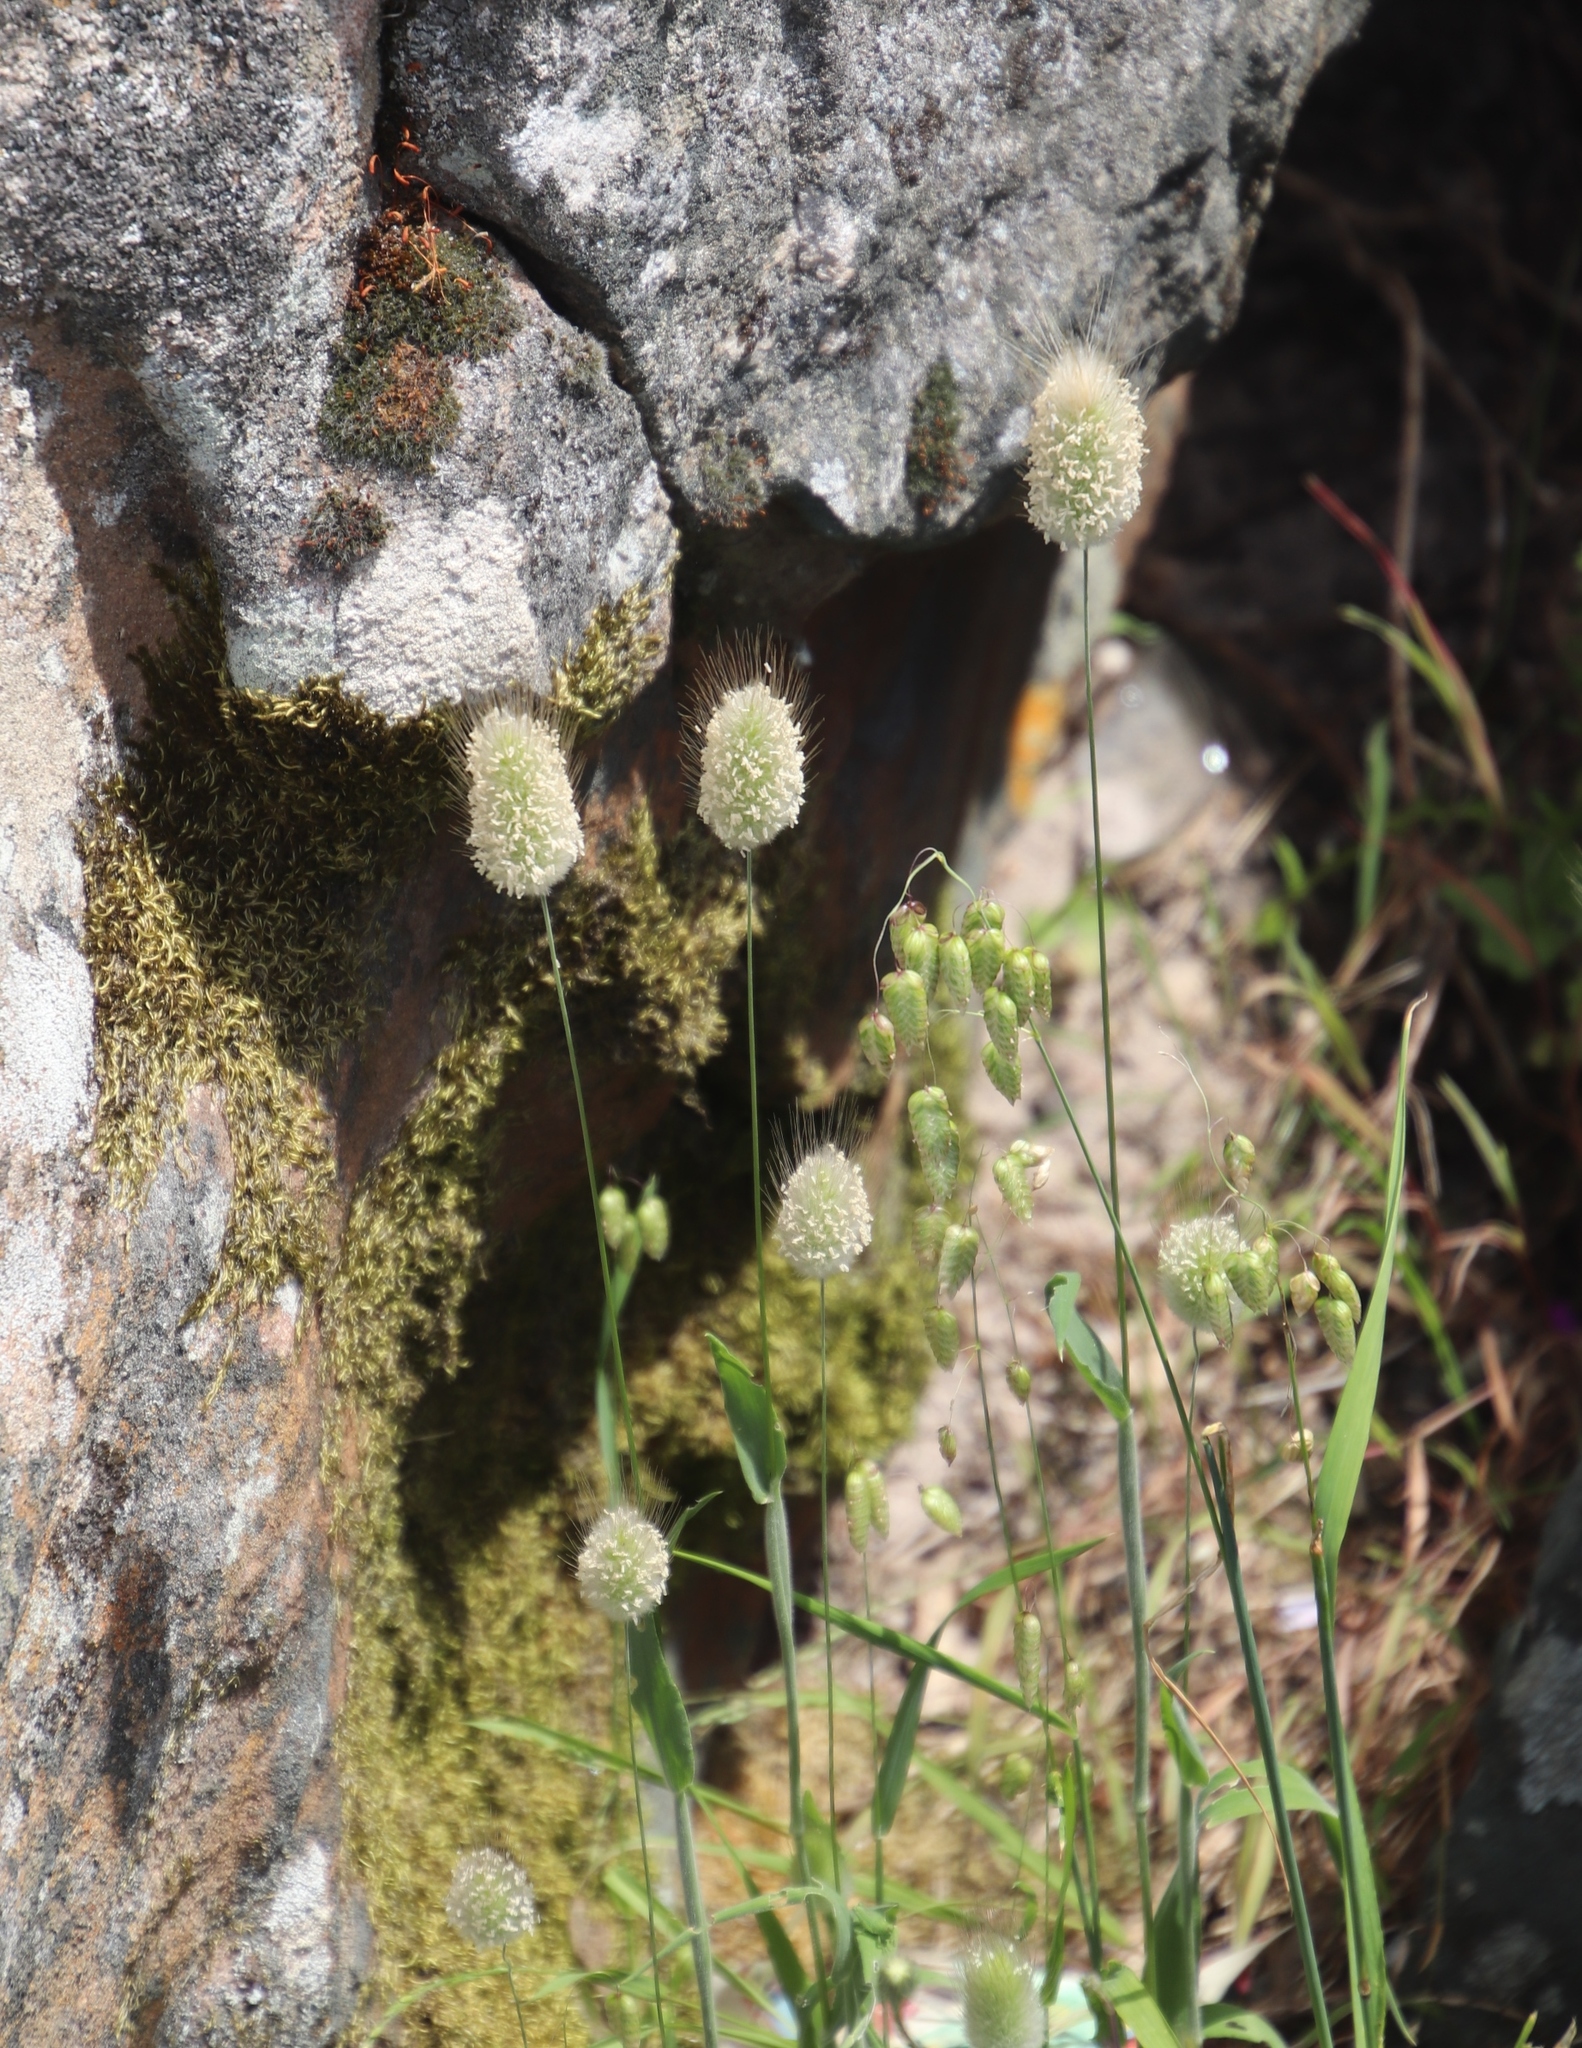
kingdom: Plantae
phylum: Tracheophyta
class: Liliopsida
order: Poales
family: Poaceae
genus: Lagurus
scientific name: Lagurus ovatus
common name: Hare's-tail
